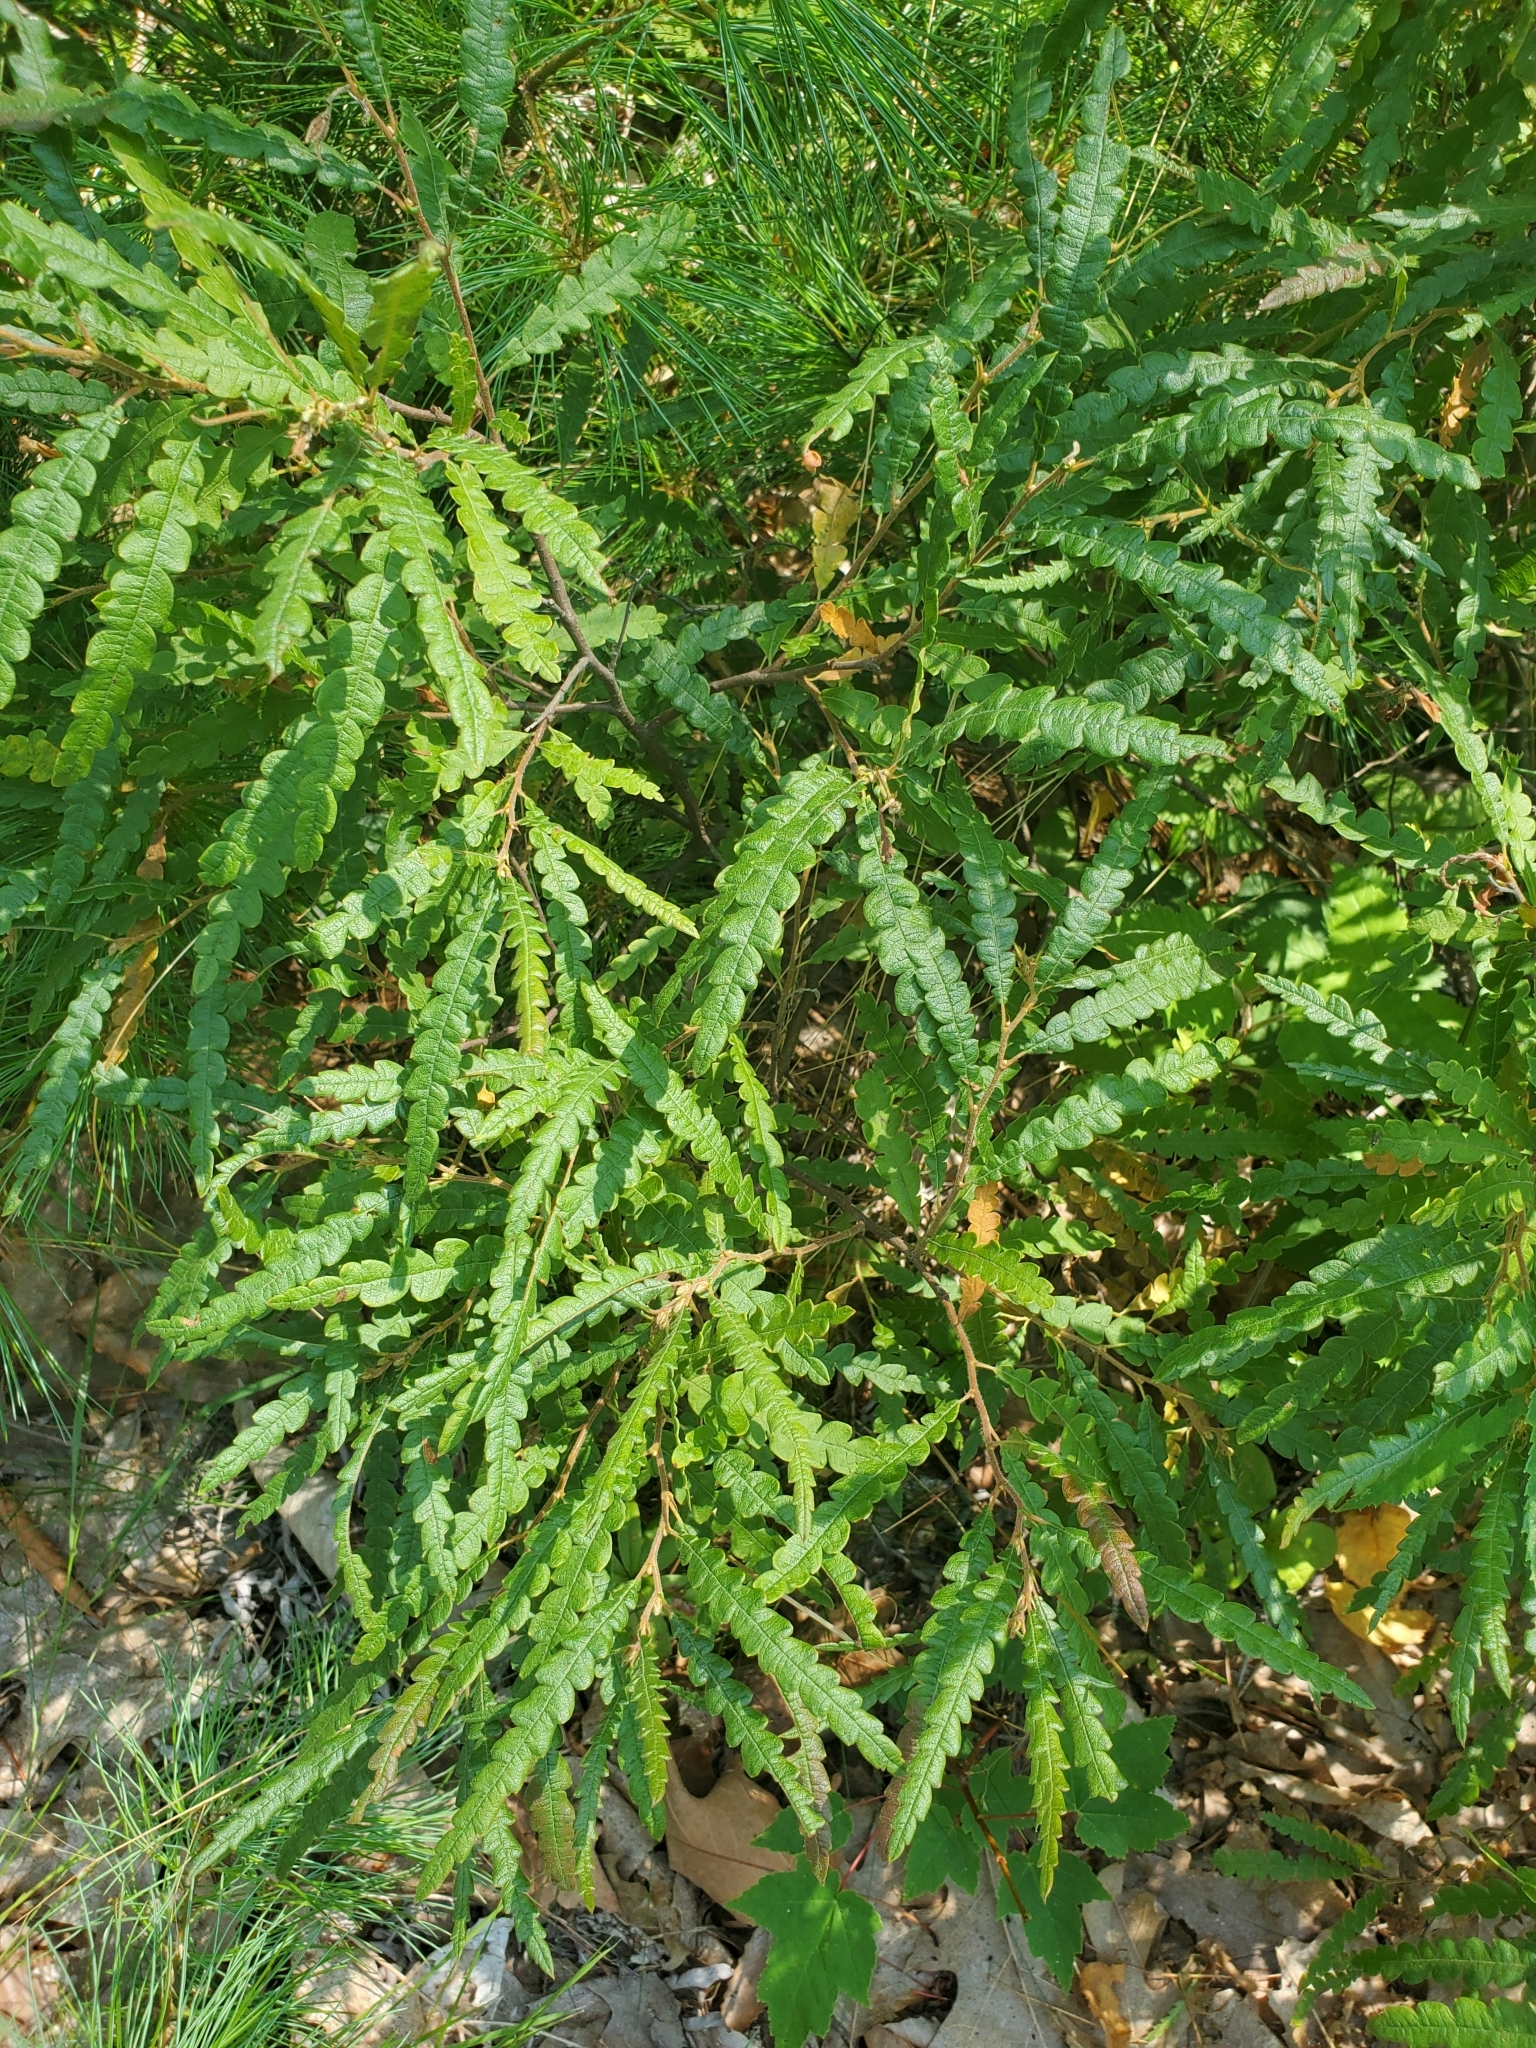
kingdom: Plantae
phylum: Tracheophyta
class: Magnoliopsida
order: Fagales
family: Myricaceae
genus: Comptonia
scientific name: Comptonia peregrina
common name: Sweet-fern
